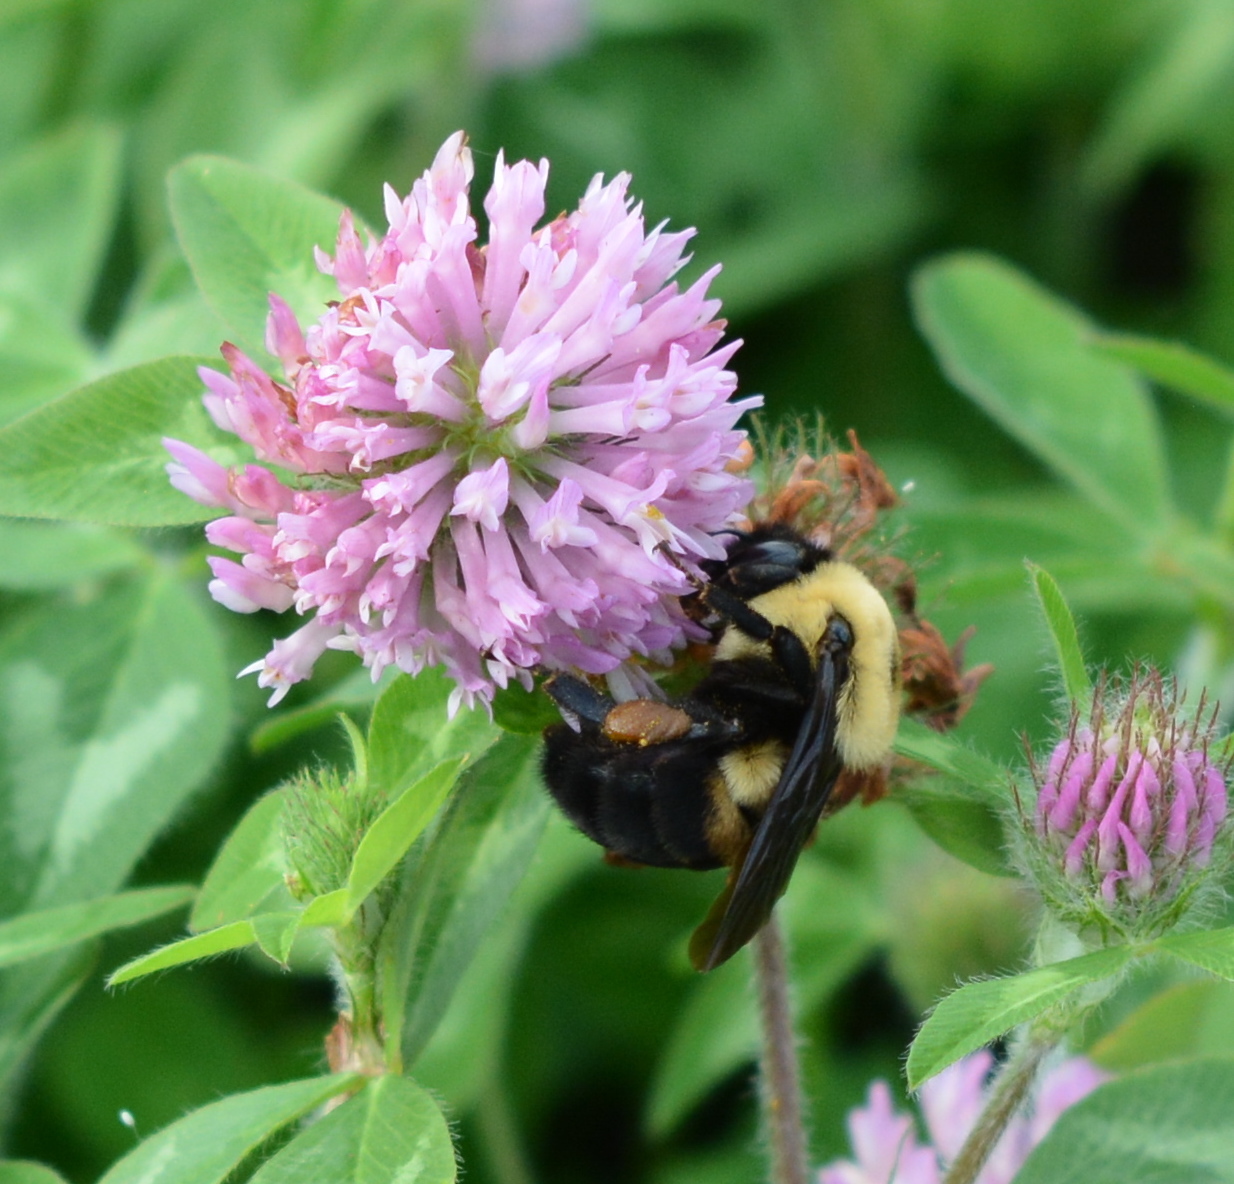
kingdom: Animalia
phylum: Arthropoda
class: Insecta
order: Hymenoptera
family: Apidae
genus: Bombus
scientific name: Bombus griseocollis
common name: Brown-belted bumble bee
